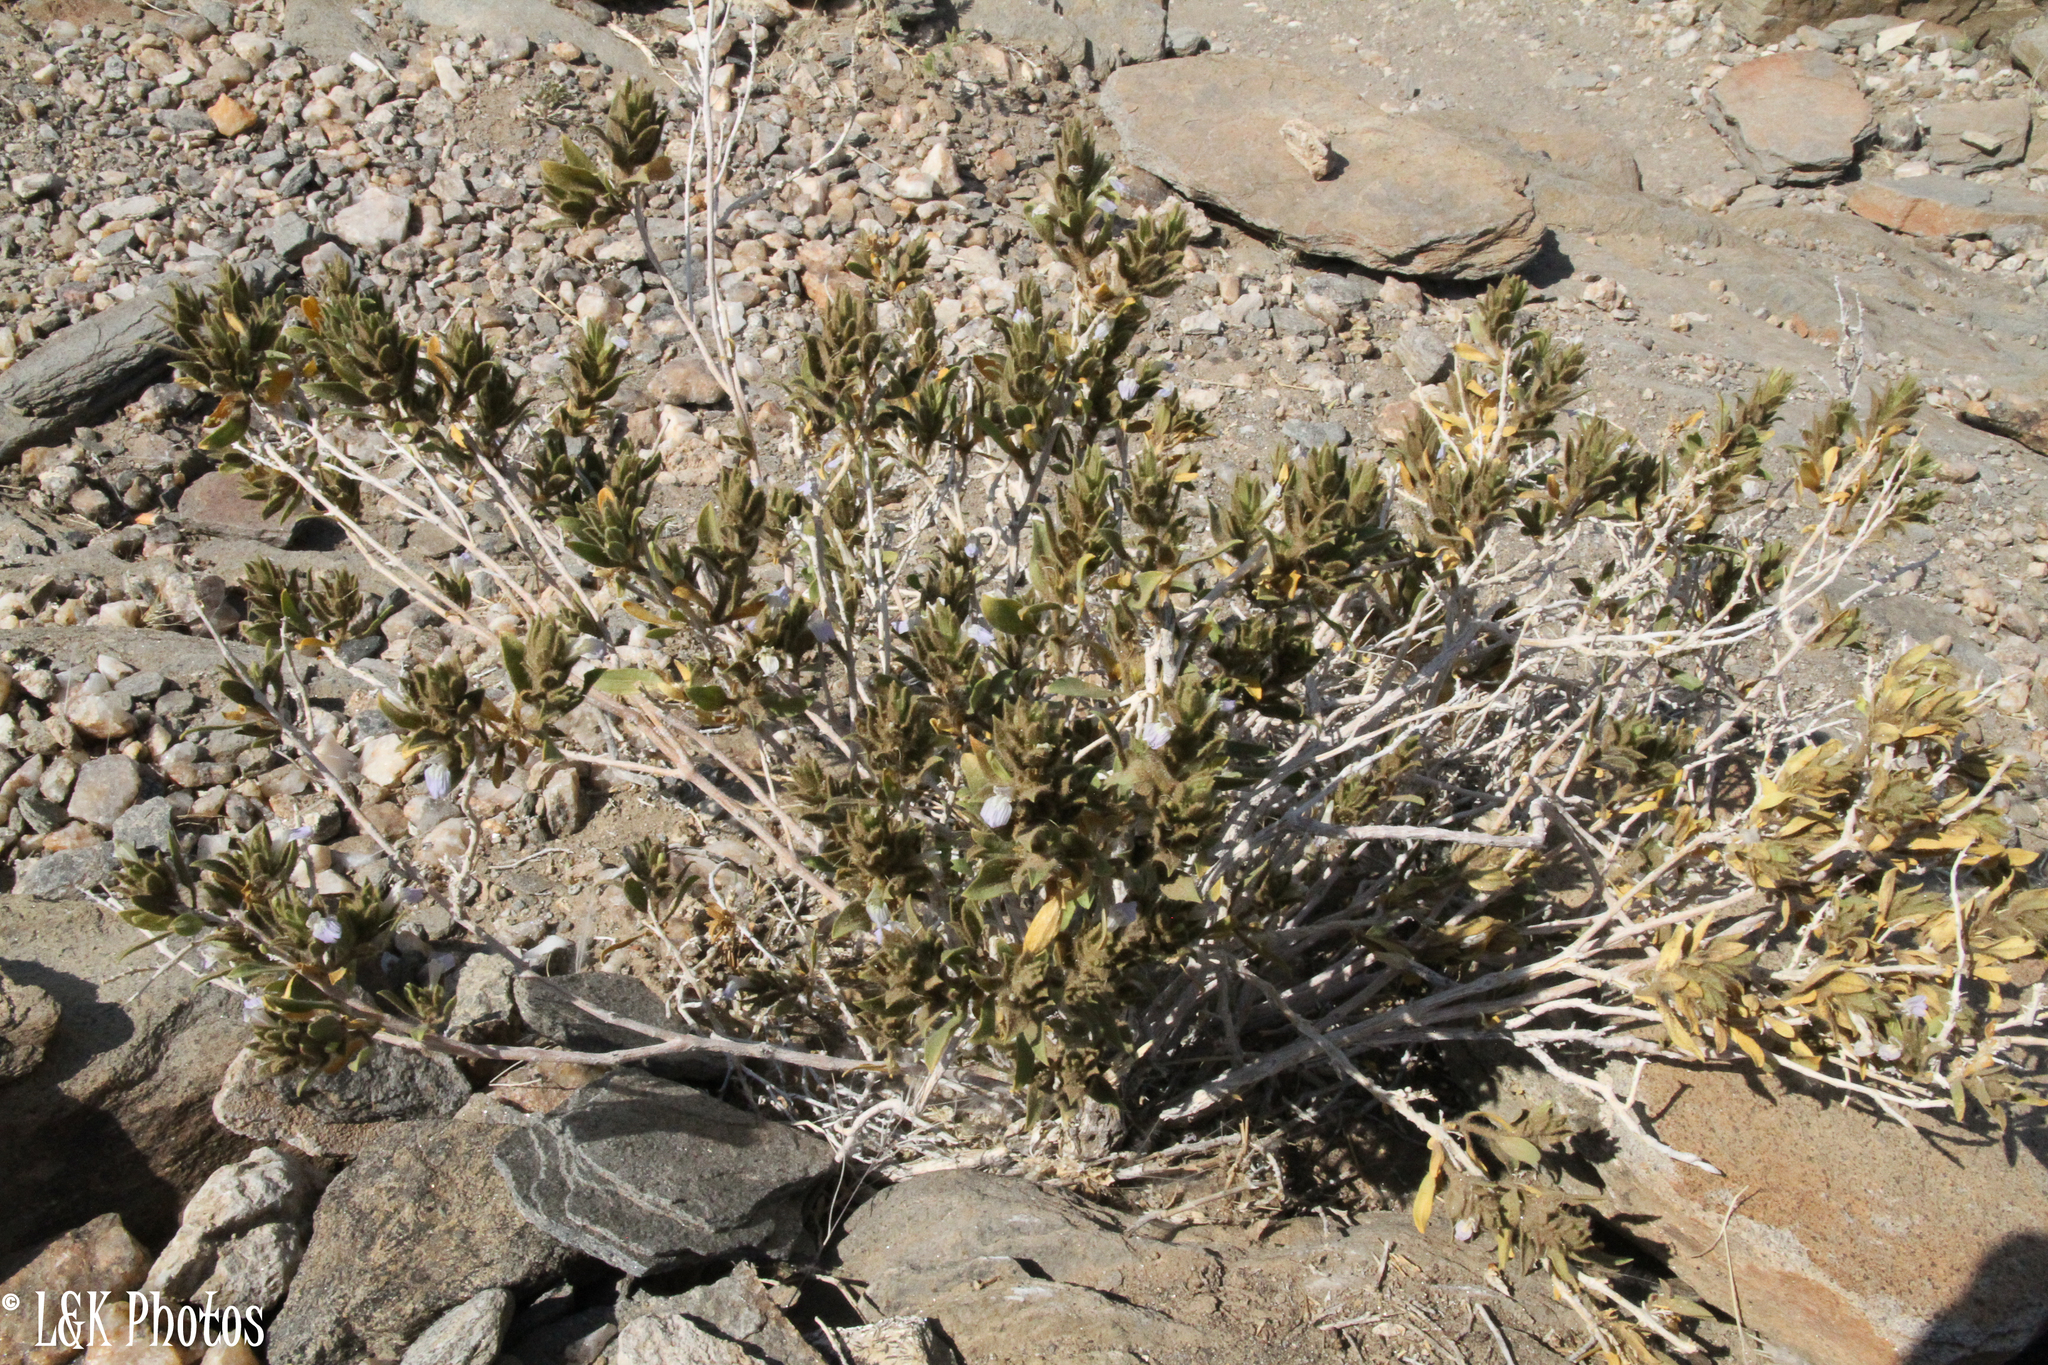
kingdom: Plantae
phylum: Tracheophyta
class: Magnoliopsida
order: Lamiales
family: Acanthaceae
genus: Pogonospermum
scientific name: Pogonospermum
